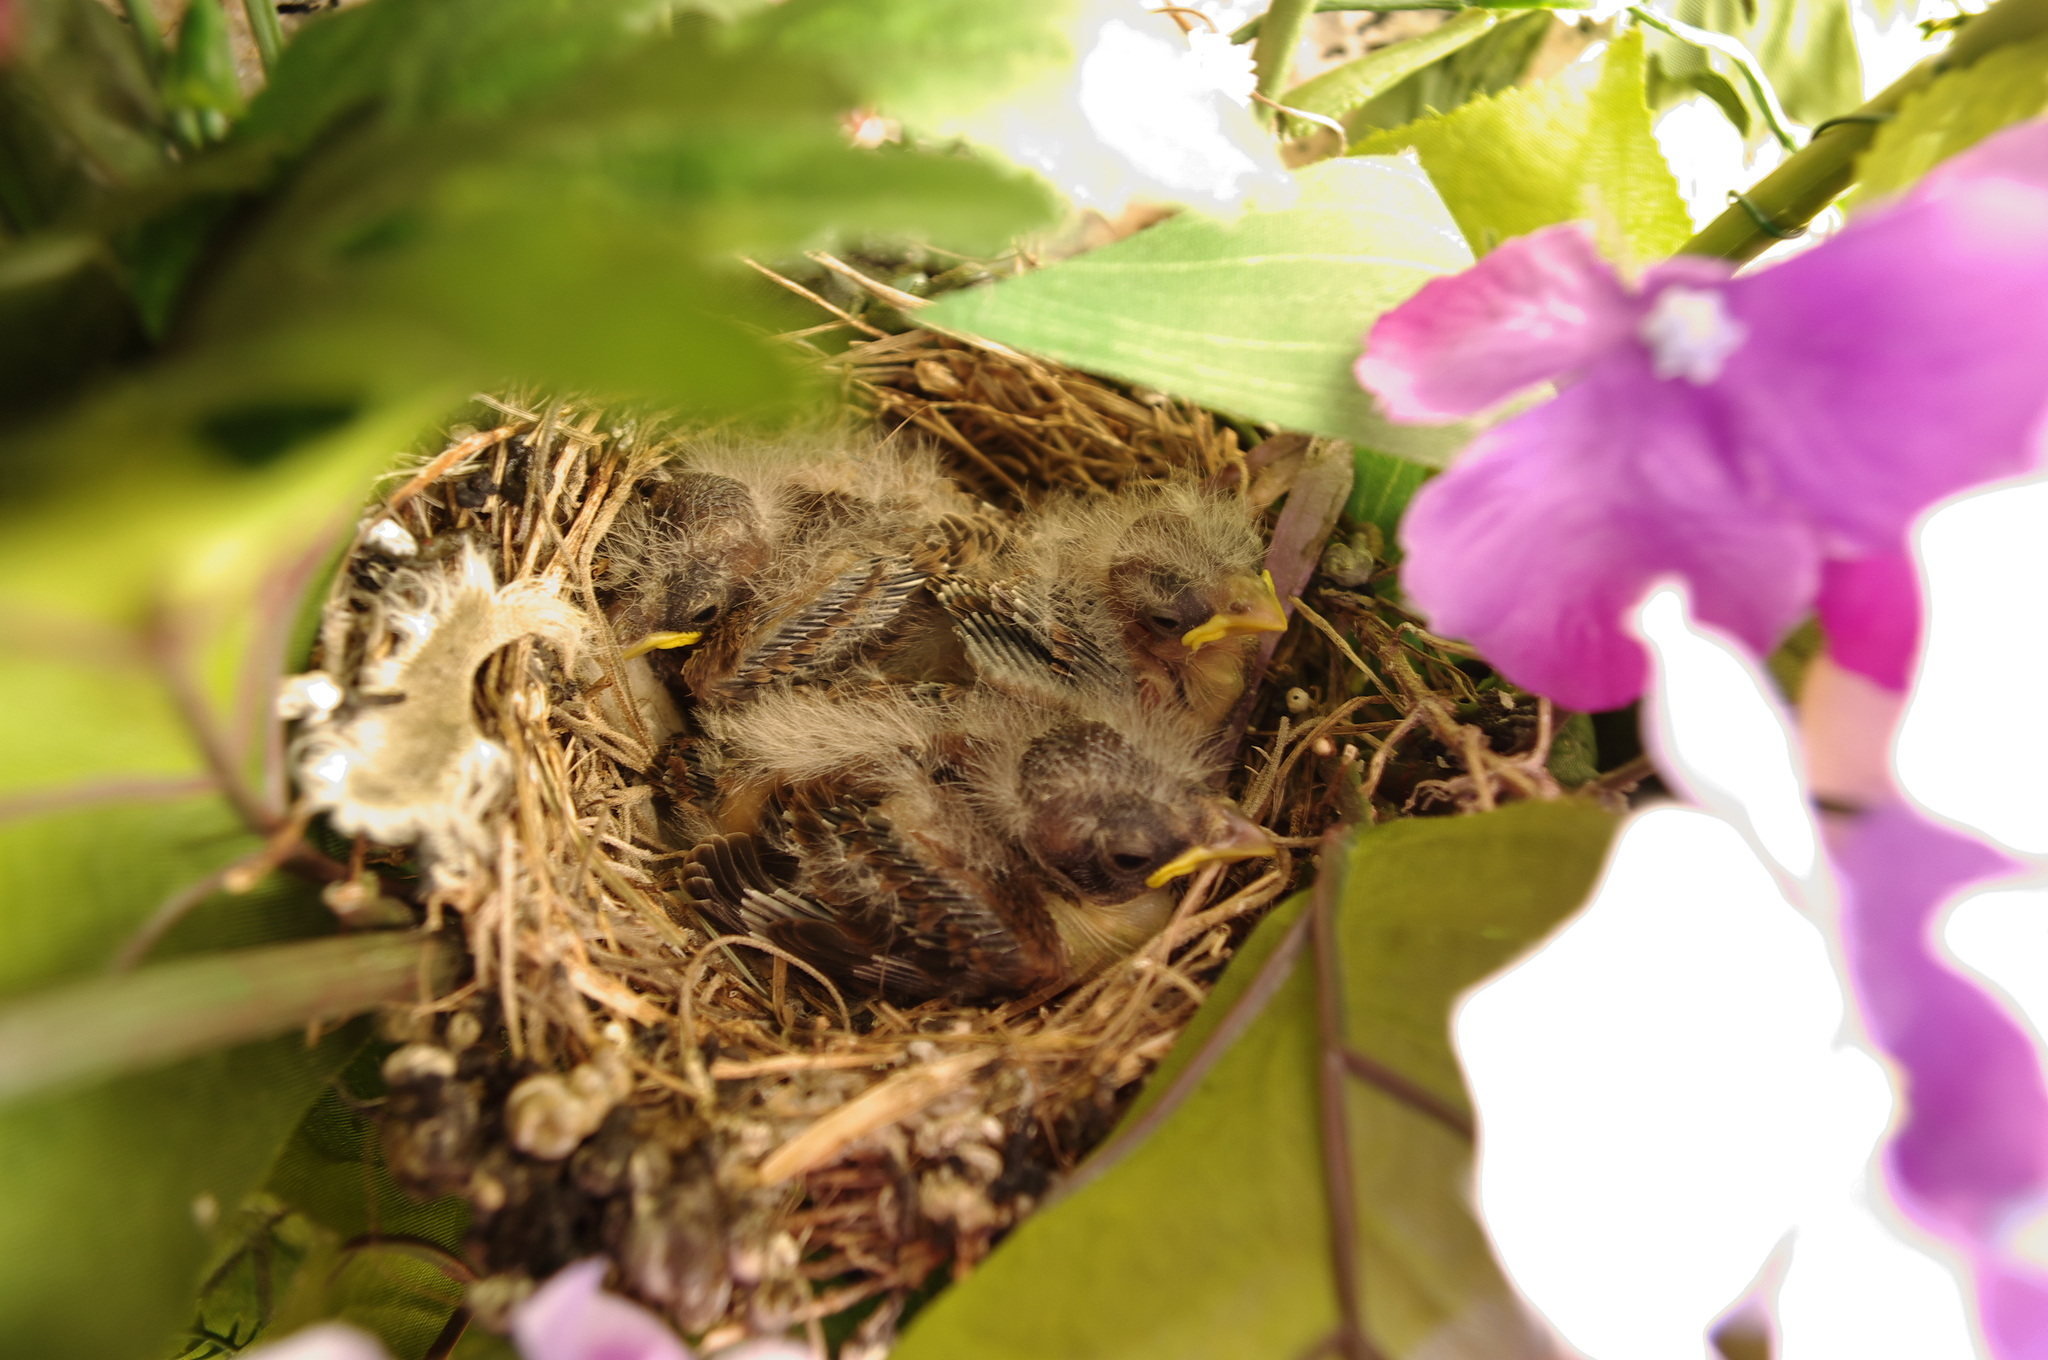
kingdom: Animalia
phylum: Chordata
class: Aves
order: Passeriformes
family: Fringillidae
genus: Haemorhous
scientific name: Haemorhous mexicanus
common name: House finch
